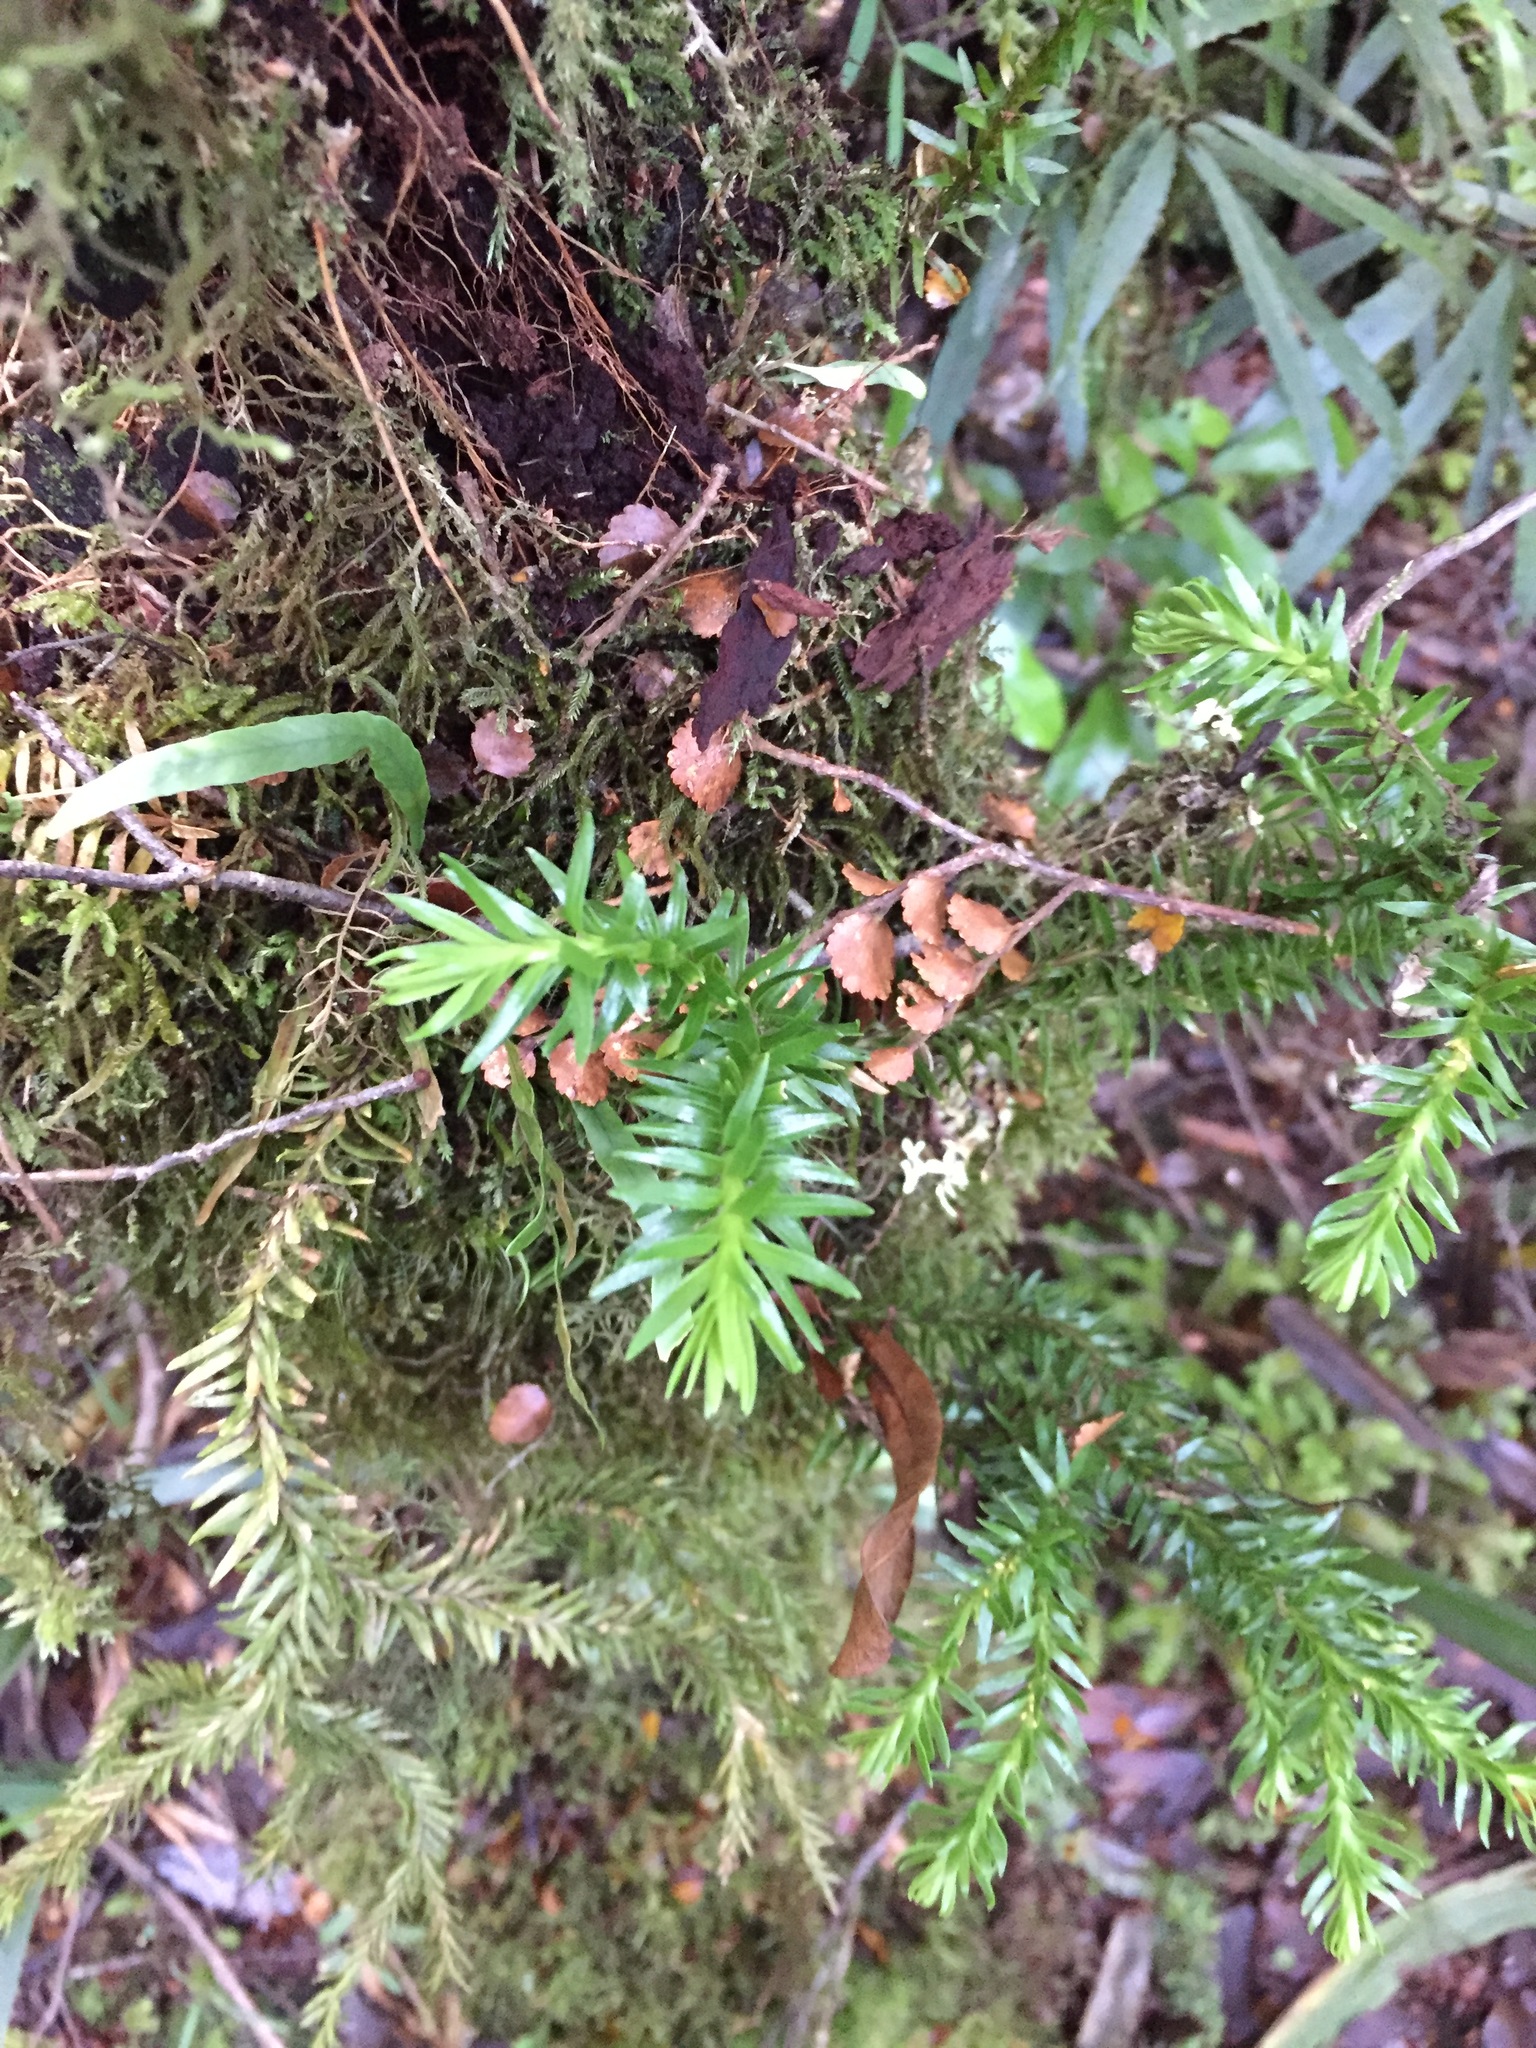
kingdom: Plantae
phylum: Tracheophyta
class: Lycopodiopsida
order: Lycopodiales
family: Lycopodiaceae
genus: Phlegmariurus
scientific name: Phlegmariurus billardierei
